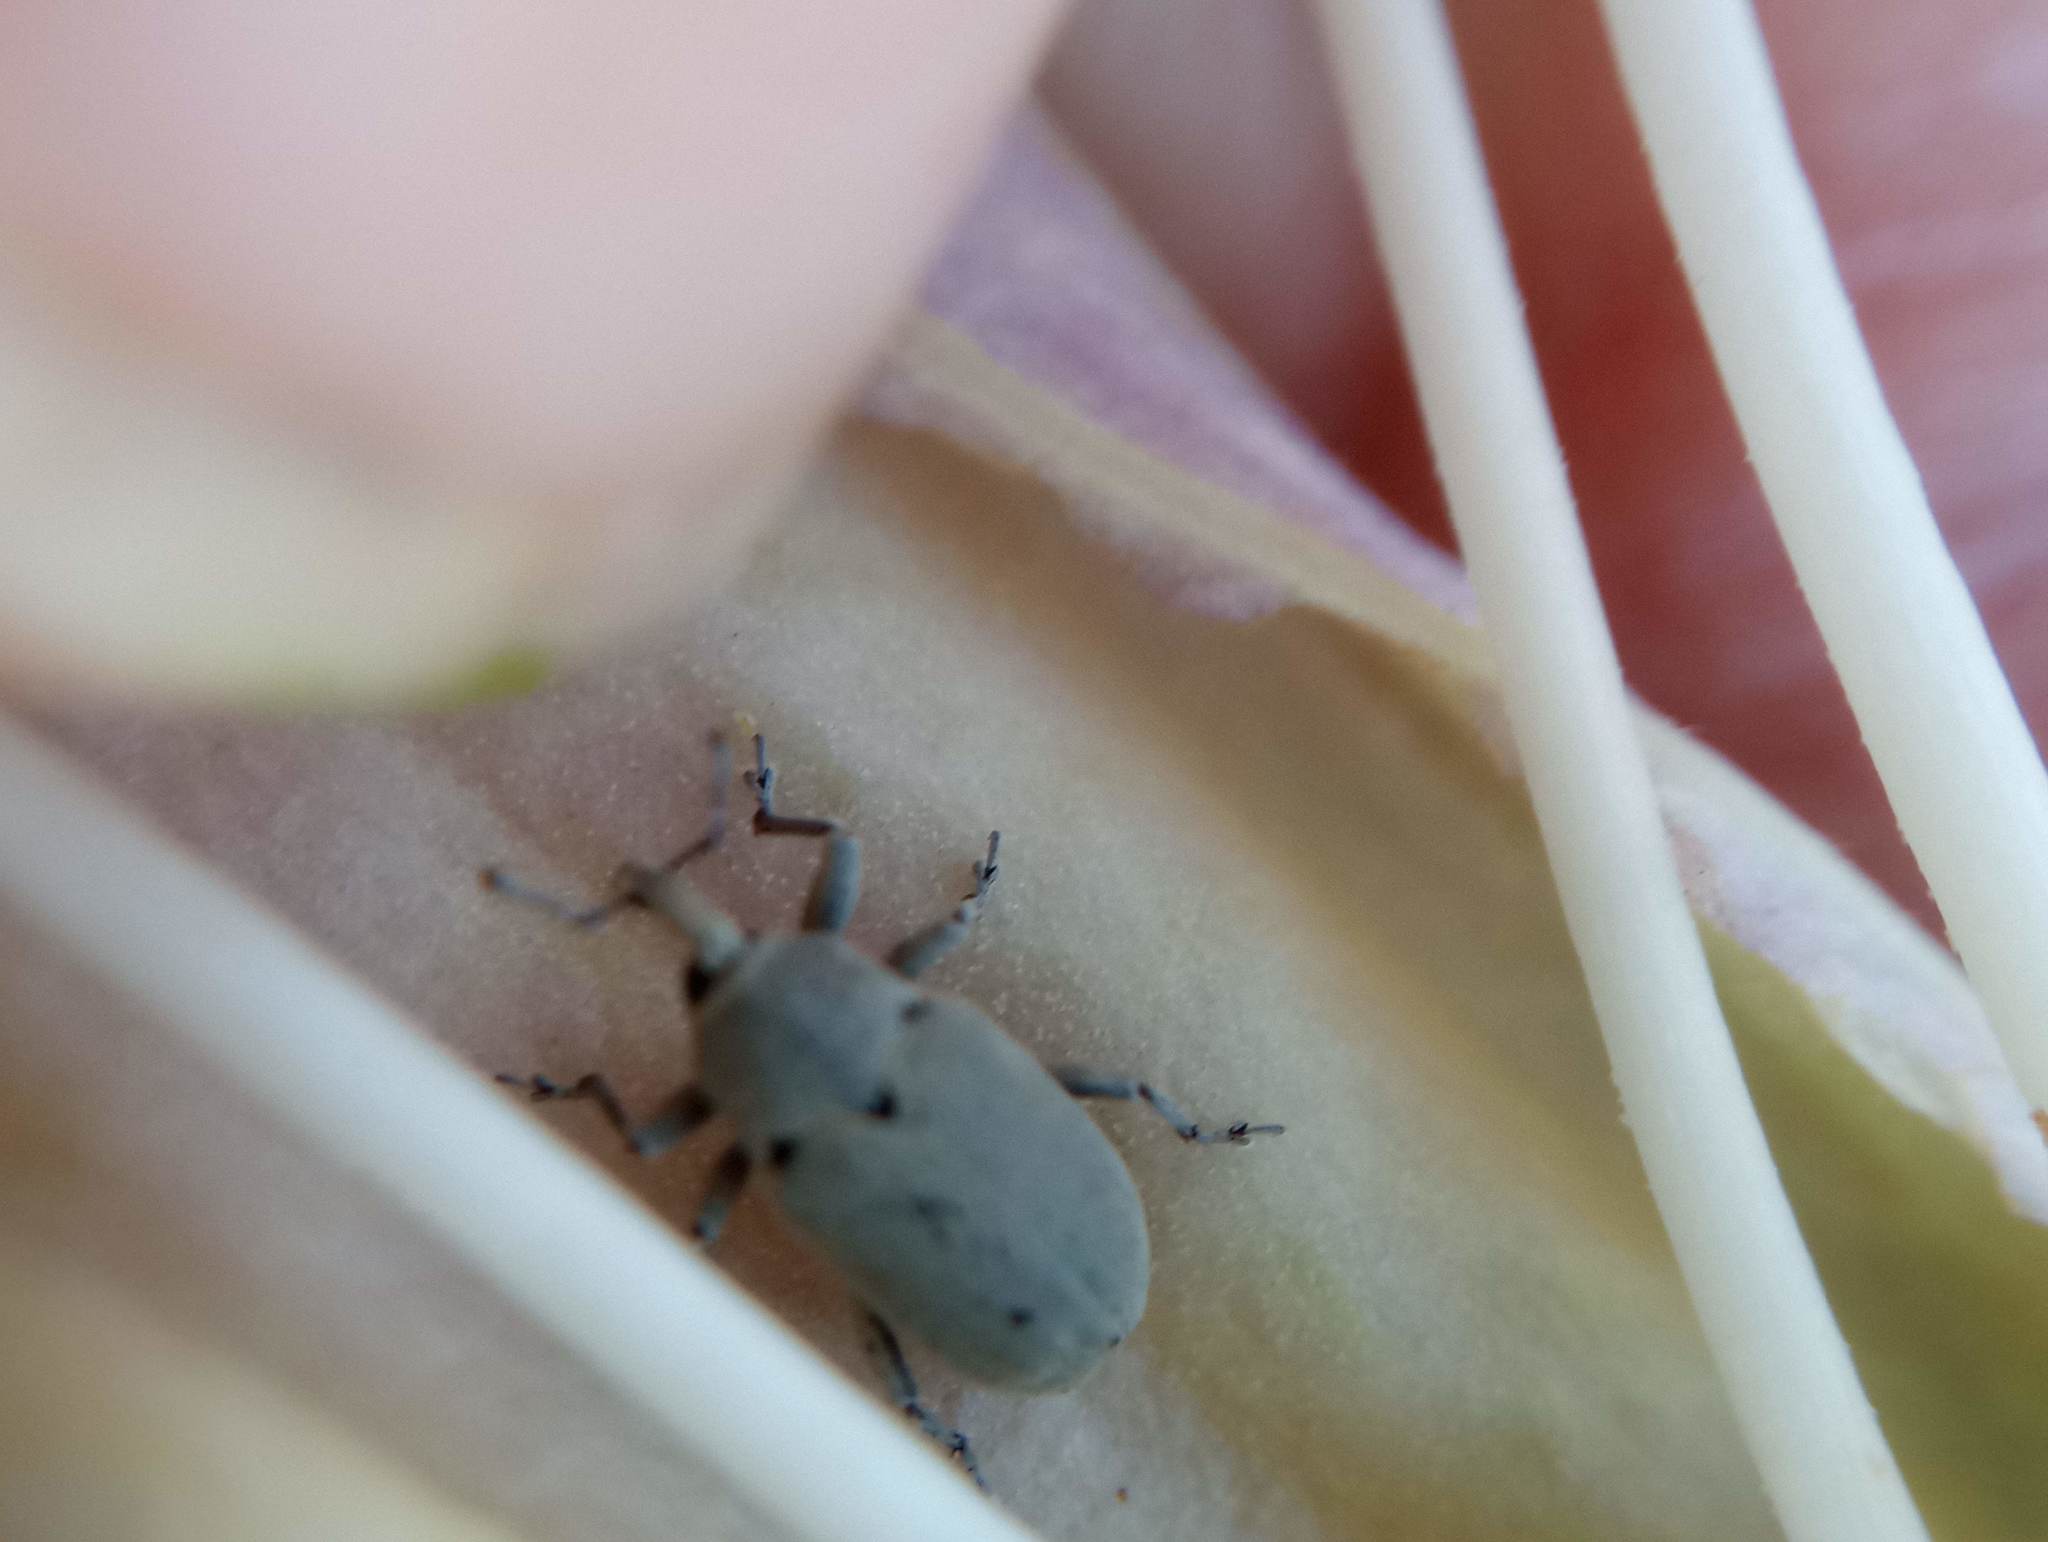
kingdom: Animalia
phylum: Arthropoda
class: Insecta
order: Coleoptera
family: Curculionidae
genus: Trichobaris
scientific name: Trichobaris compacta
